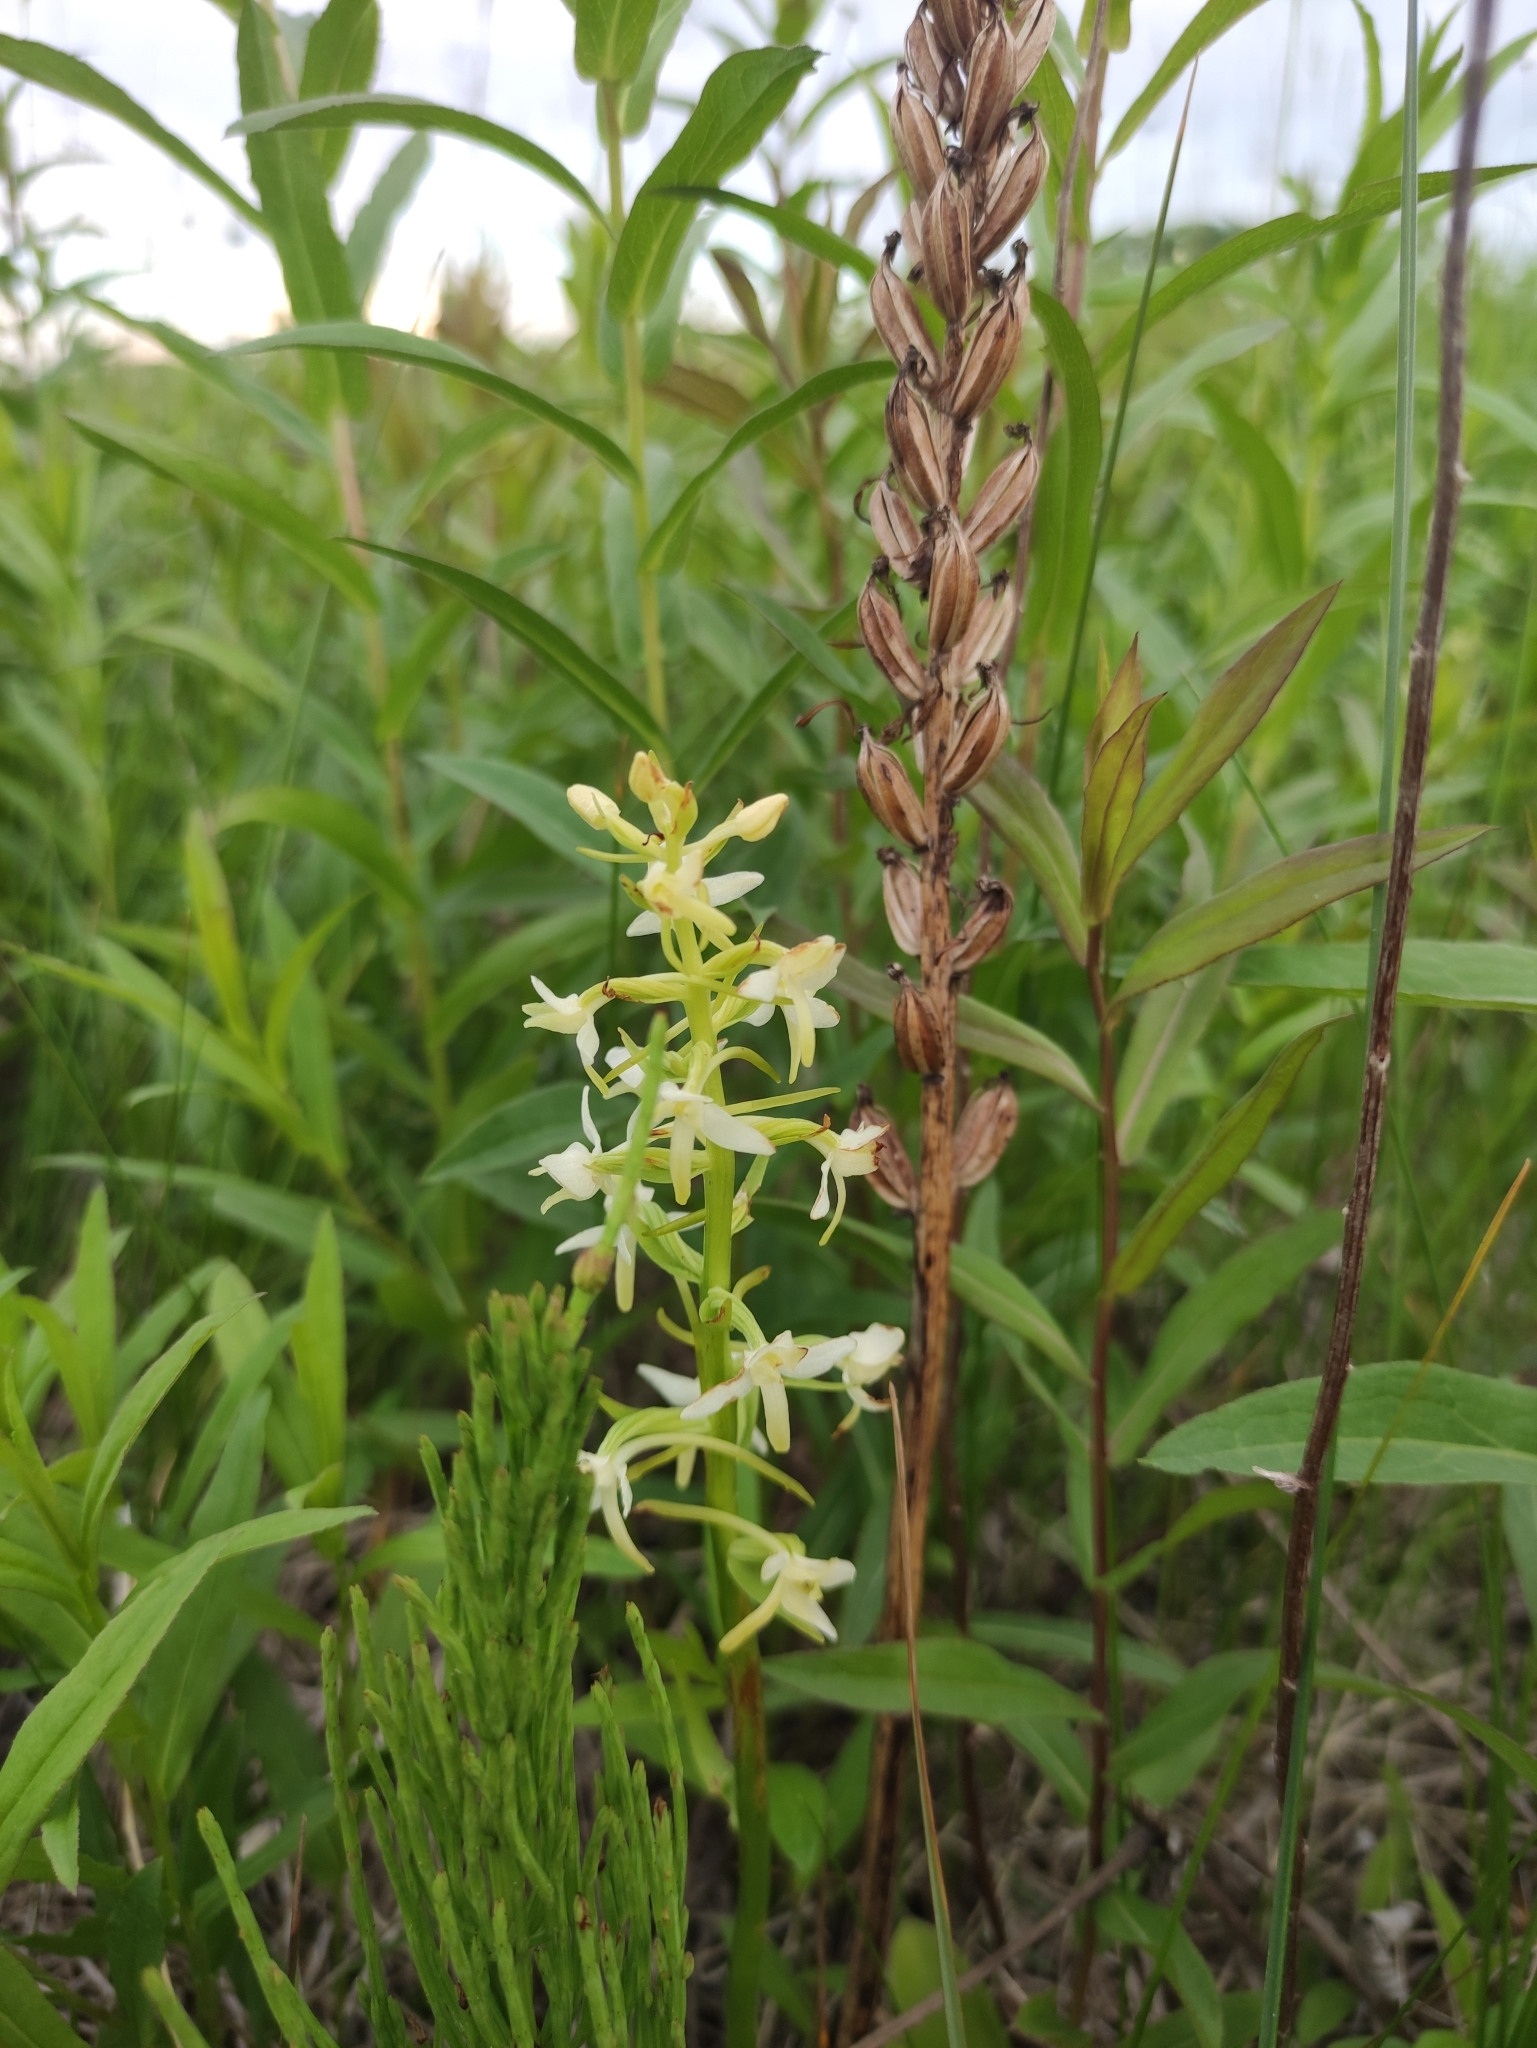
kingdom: Plantae
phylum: Tracheophyta
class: Liliopsida
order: Asparagales
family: Orchidaceae
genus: Platanthera
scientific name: Platanthera bifolia
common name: Lesser butterfly-orchid
